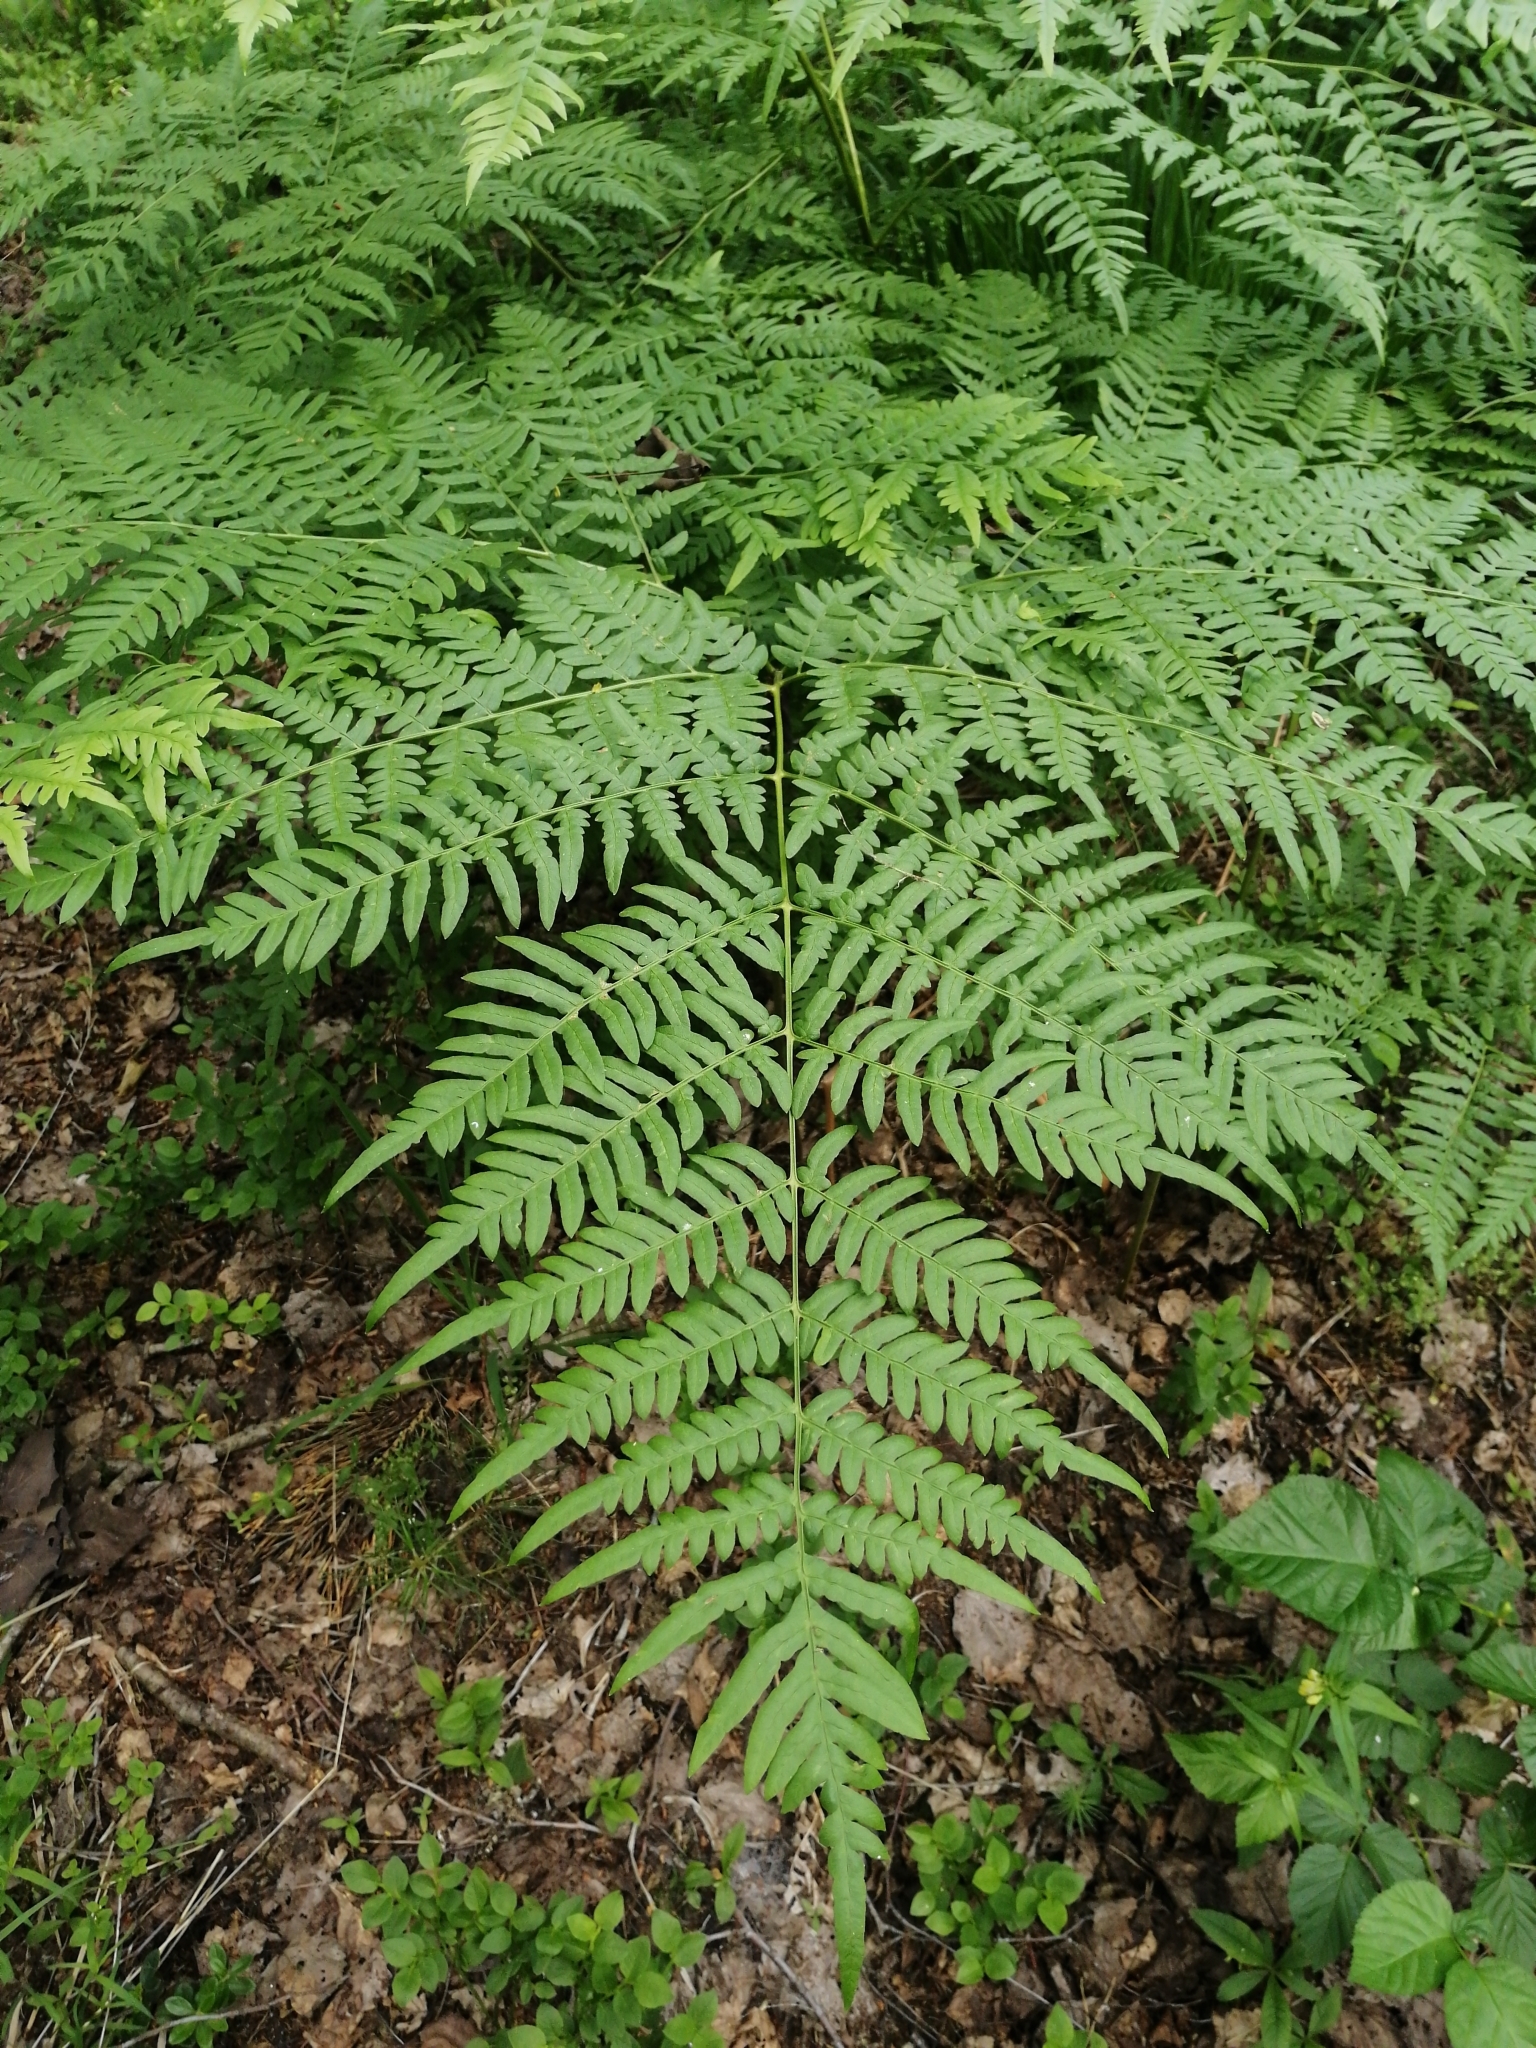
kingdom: Plantae
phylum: Tracheophyta
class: Polypodiopsida
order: Polypodiales
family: Dennstaedtiaceae
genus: Pteridium
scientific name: Pteridium aquilinum
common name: Bracken
